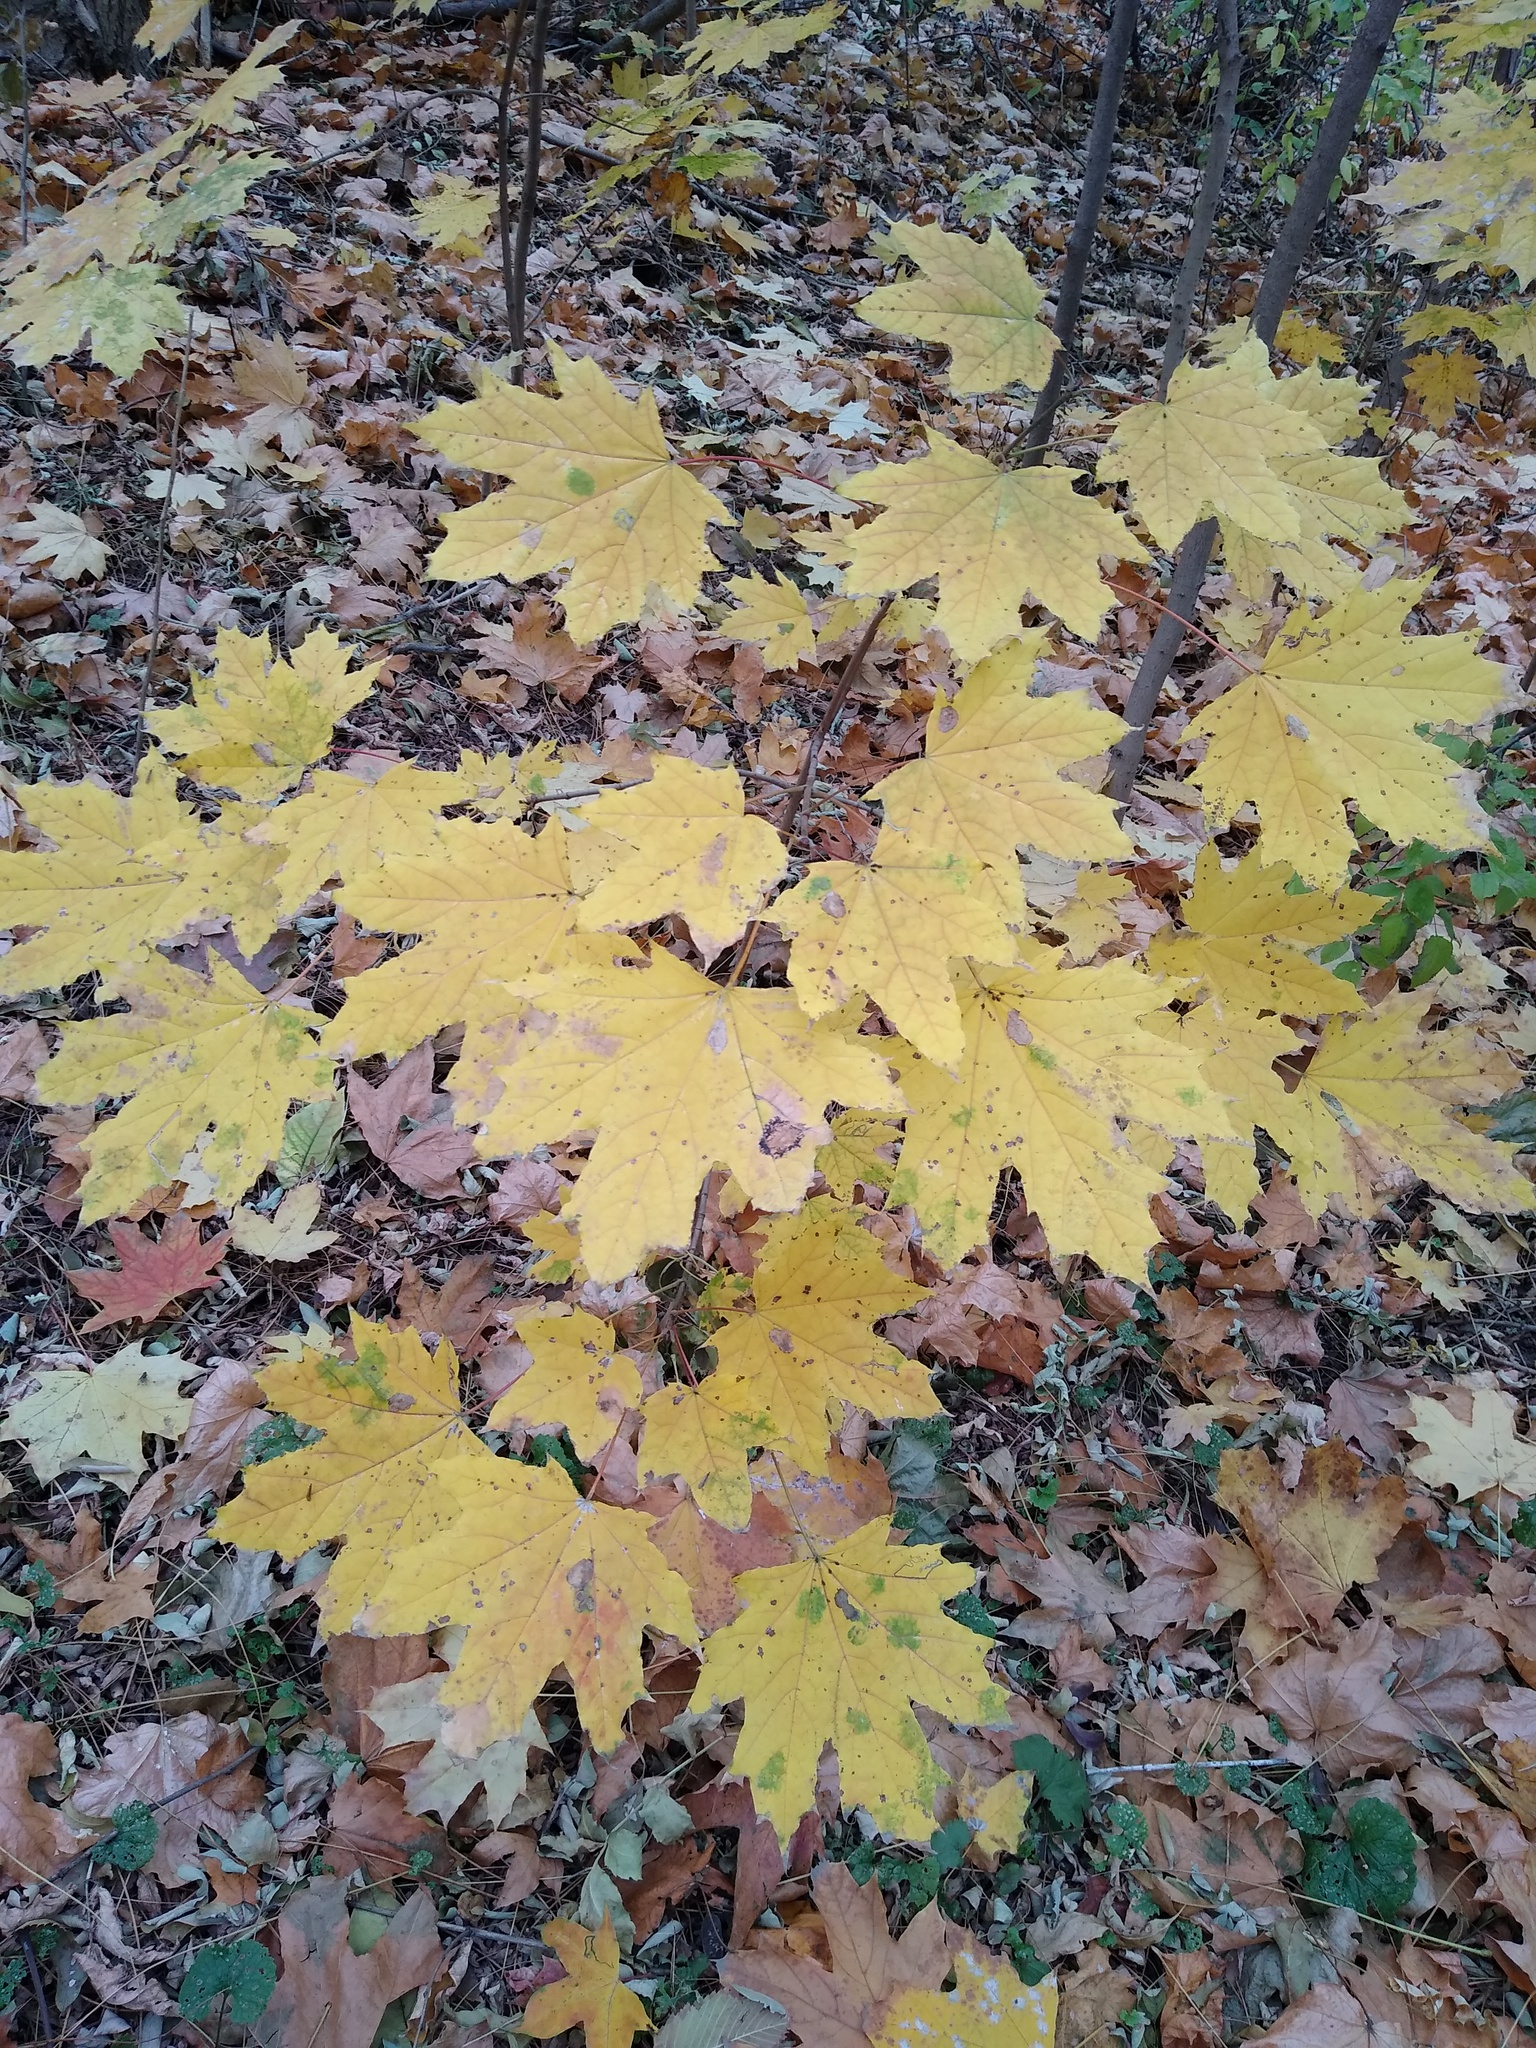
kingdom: Plantae
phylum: Tracheophyta
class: Magnoliopsida
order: Sapindales
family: Sapindaceae
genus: Acer
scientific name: Acer platanoides
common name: Norway maple
